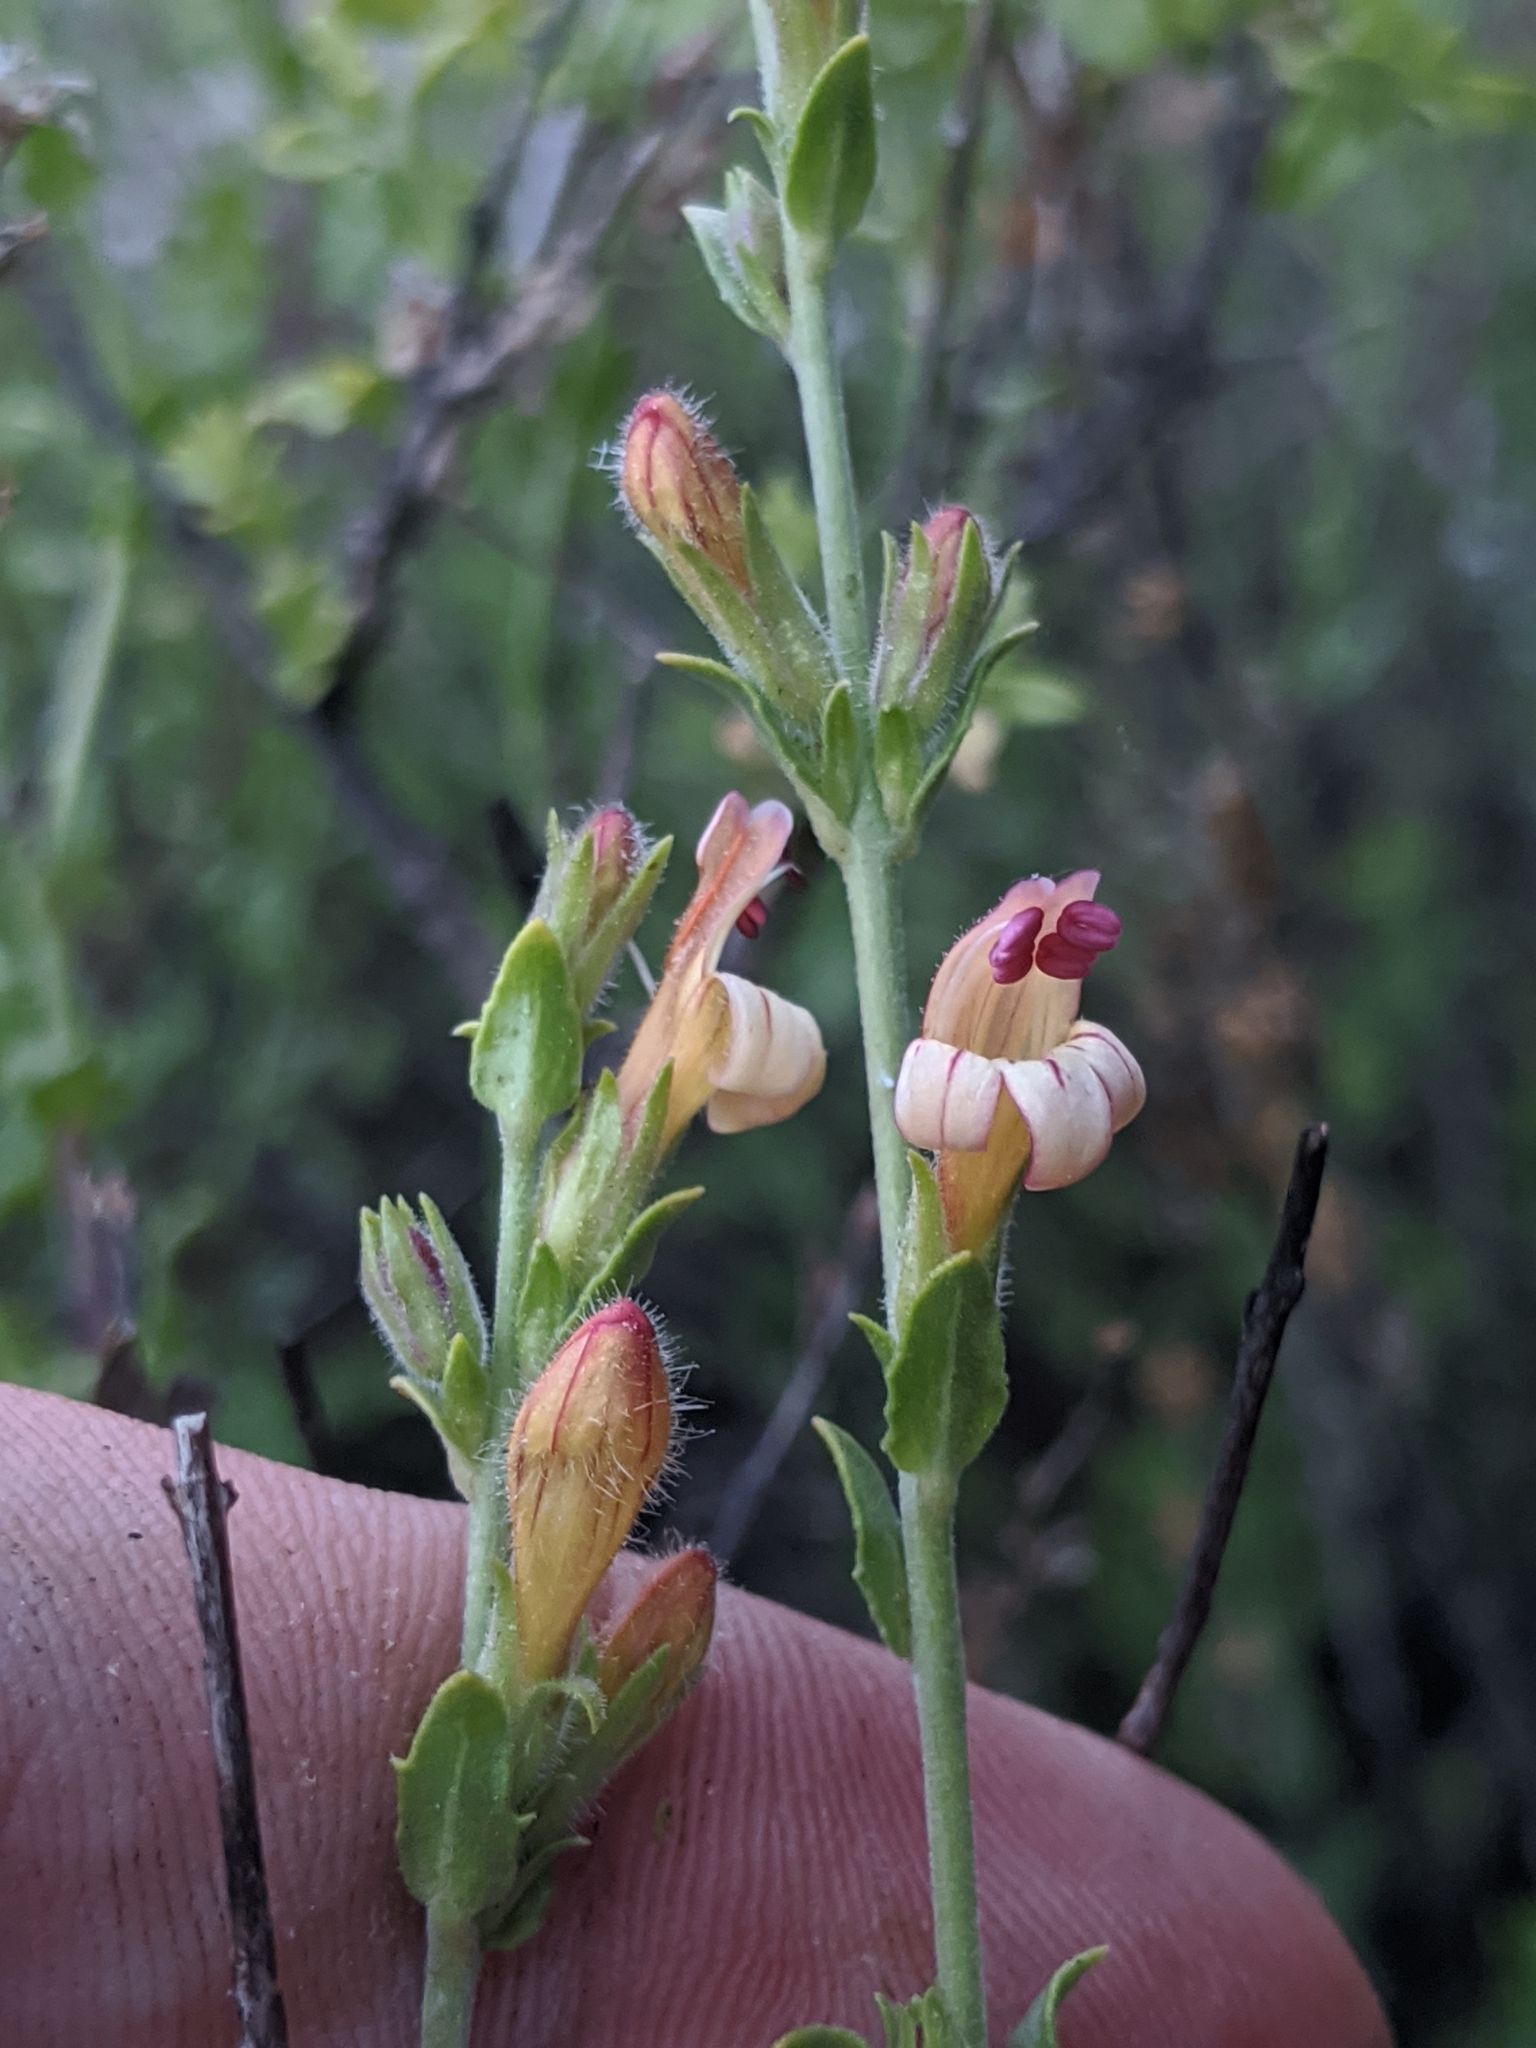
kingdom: Plantae
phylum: Tracheophyta
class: Magnoliopsida
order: Lamiales
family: Plantaginaceae
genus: Keckiella
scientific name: Keckiella rothrockii
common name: Rothrock's keckiella
